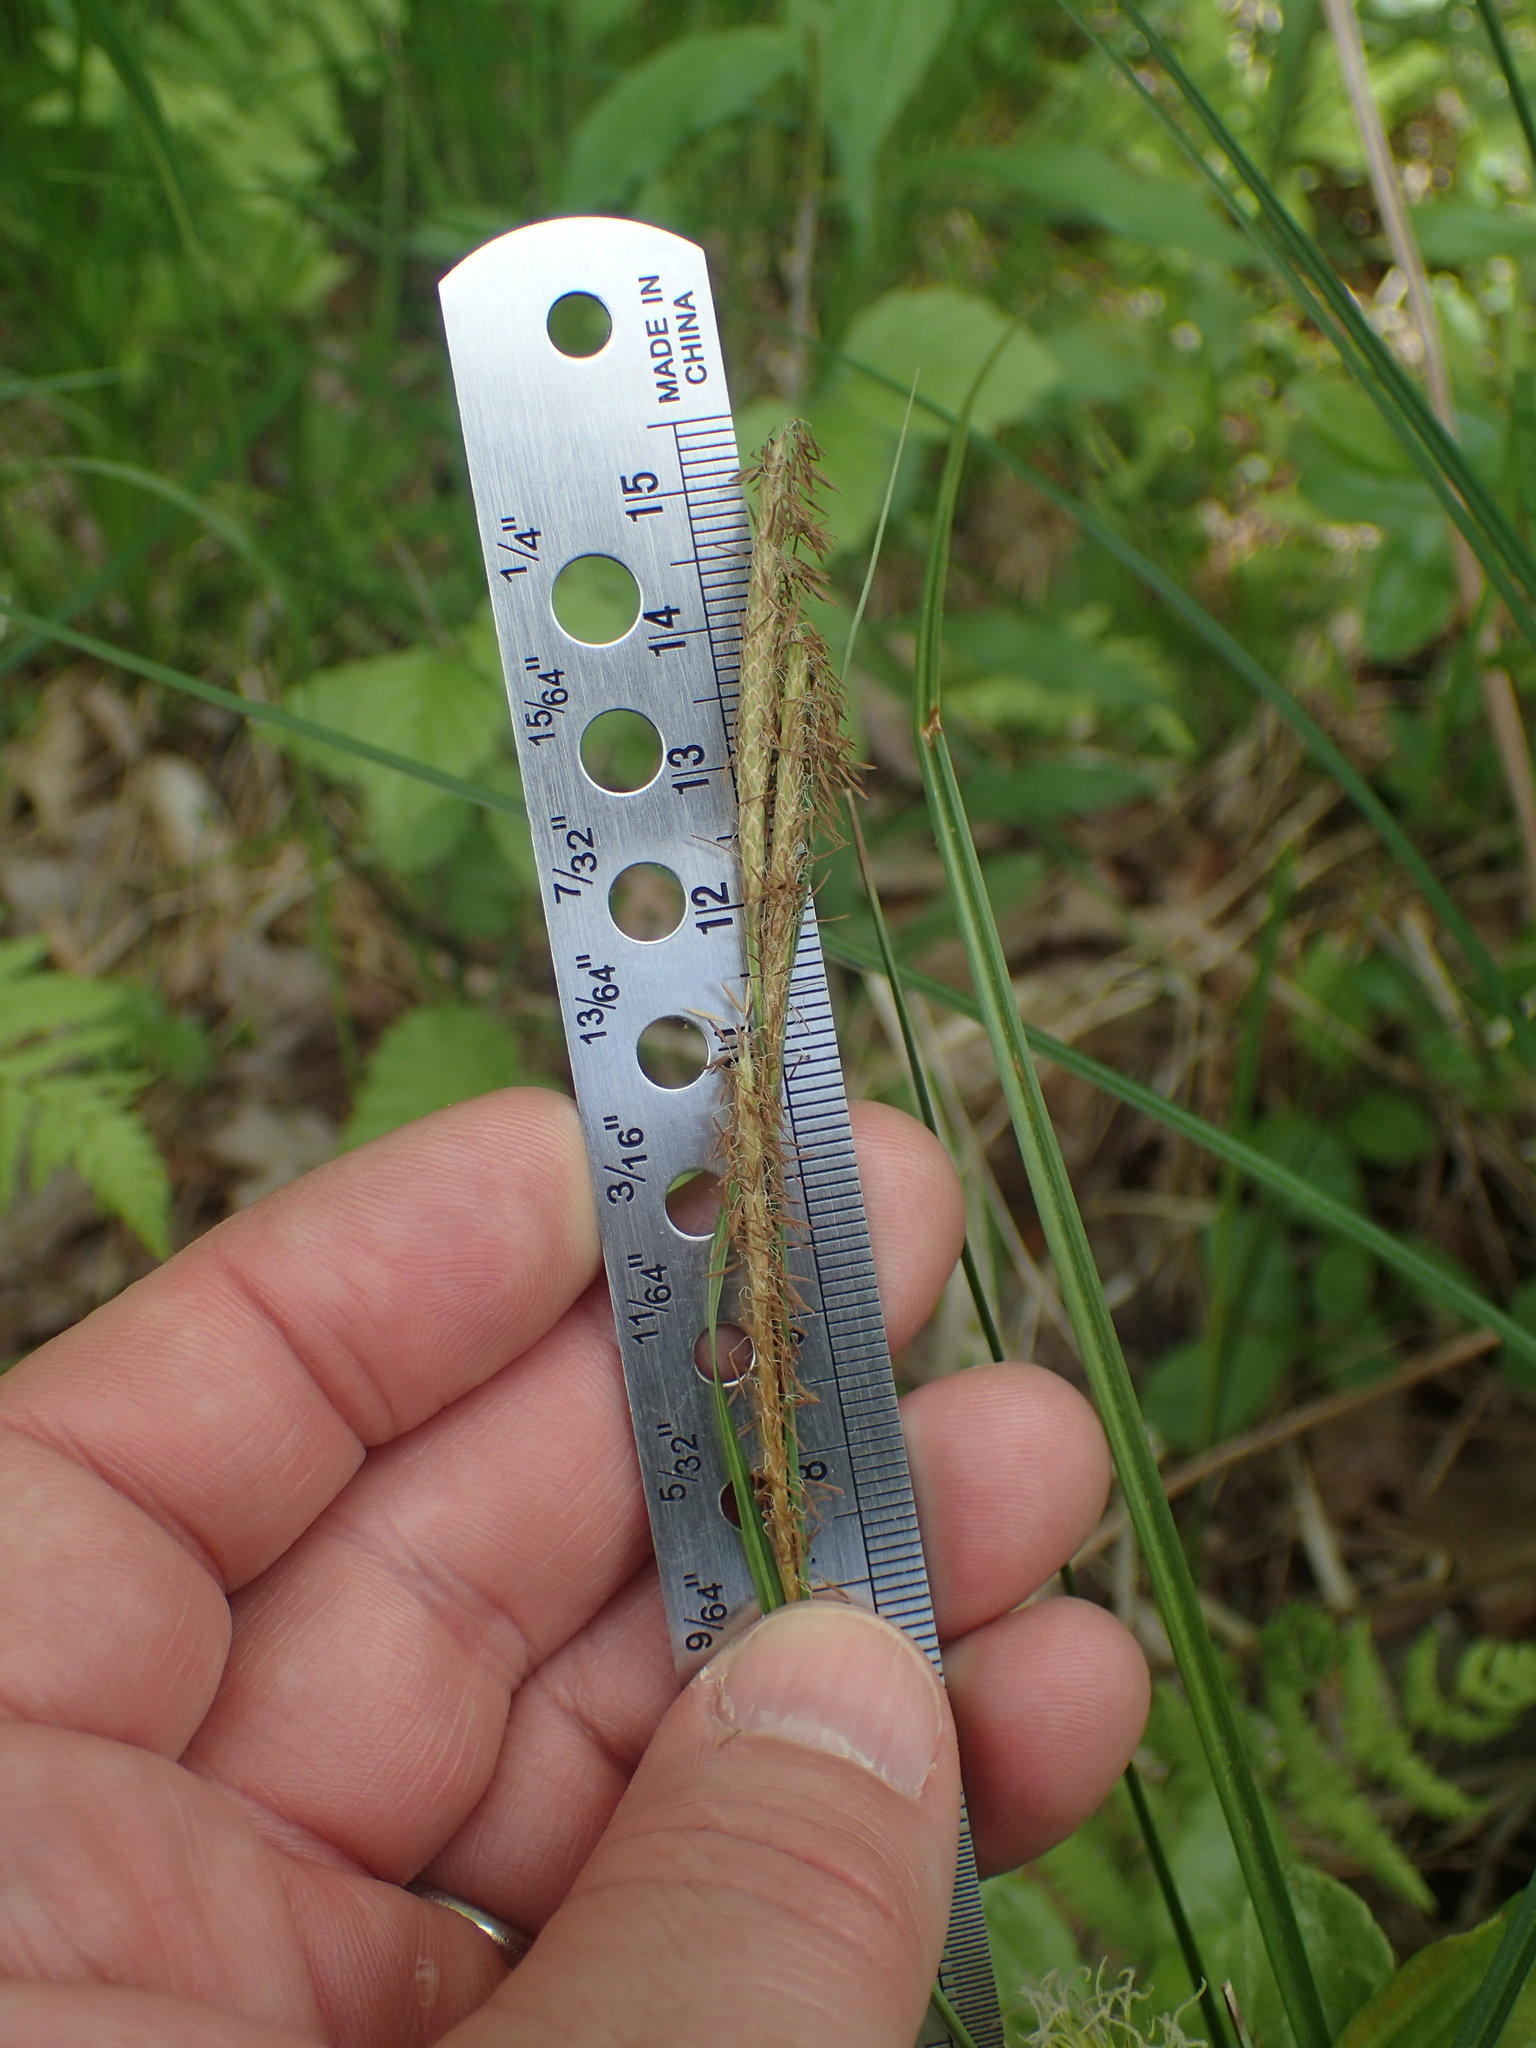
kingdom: Plantae
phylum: Tracheophyta
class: Liliopsida
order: Poales
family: Cyperaceae
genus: Carex
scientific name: Carex bullata
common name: Button sedge
